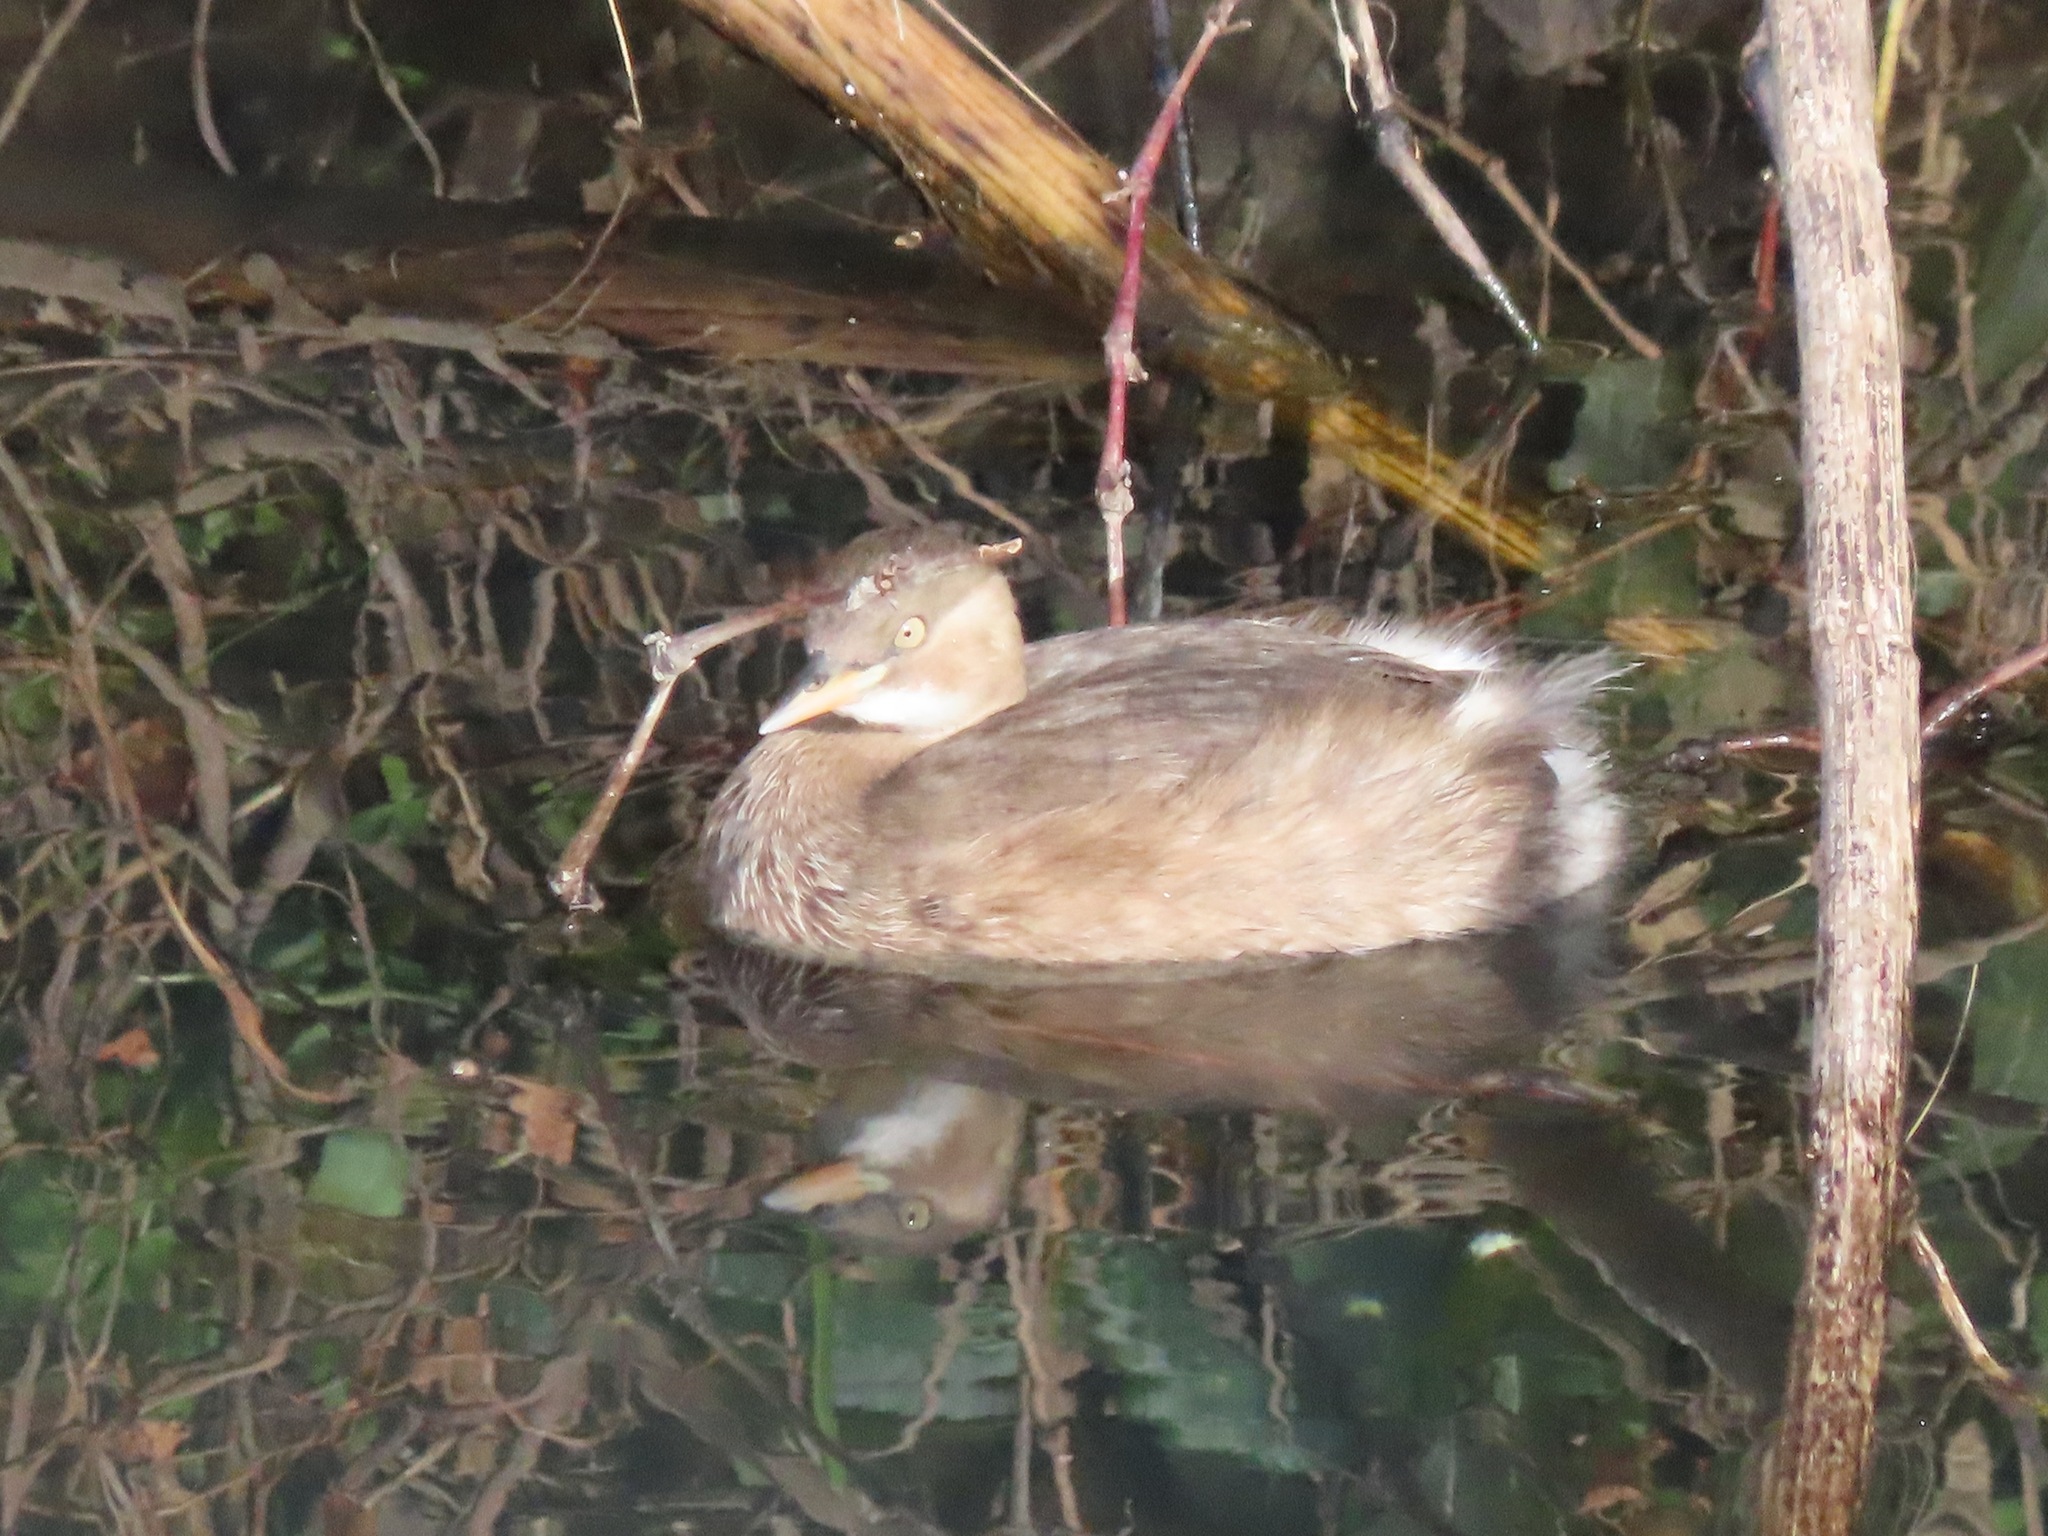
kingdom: Animalia
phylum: Chordata
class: Aves
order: Podicipediformes
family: Podicipedidae
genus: Tachybaptus
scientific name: Tachybaptus ruficollis
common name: Little grebe
